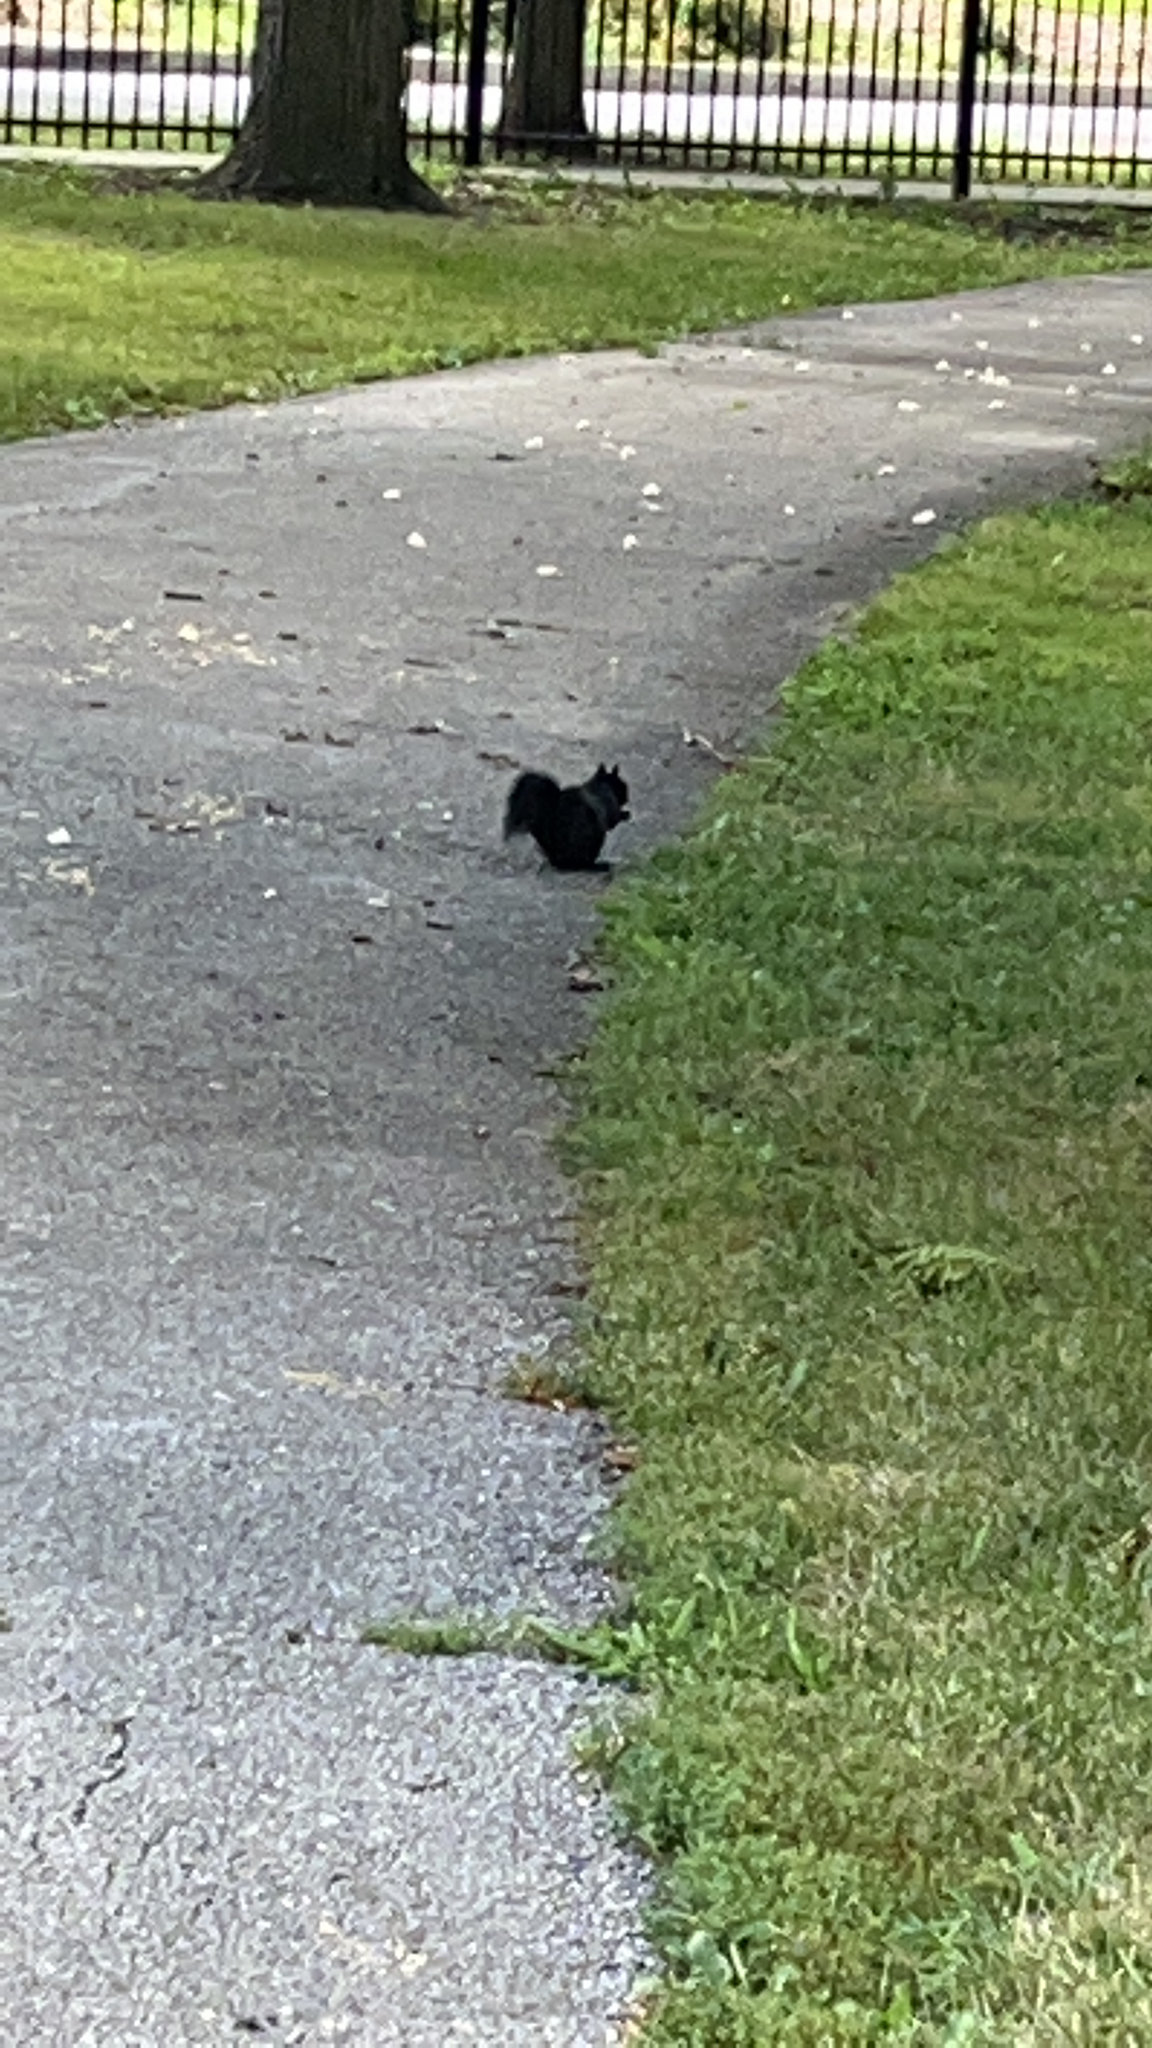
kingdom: Animalia
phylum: Chordata
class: Mammalia
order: Rodentia
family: Sciuridae
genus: Sciurus
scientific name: Sciurus carolinensis
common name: Eastern gray squirrel
